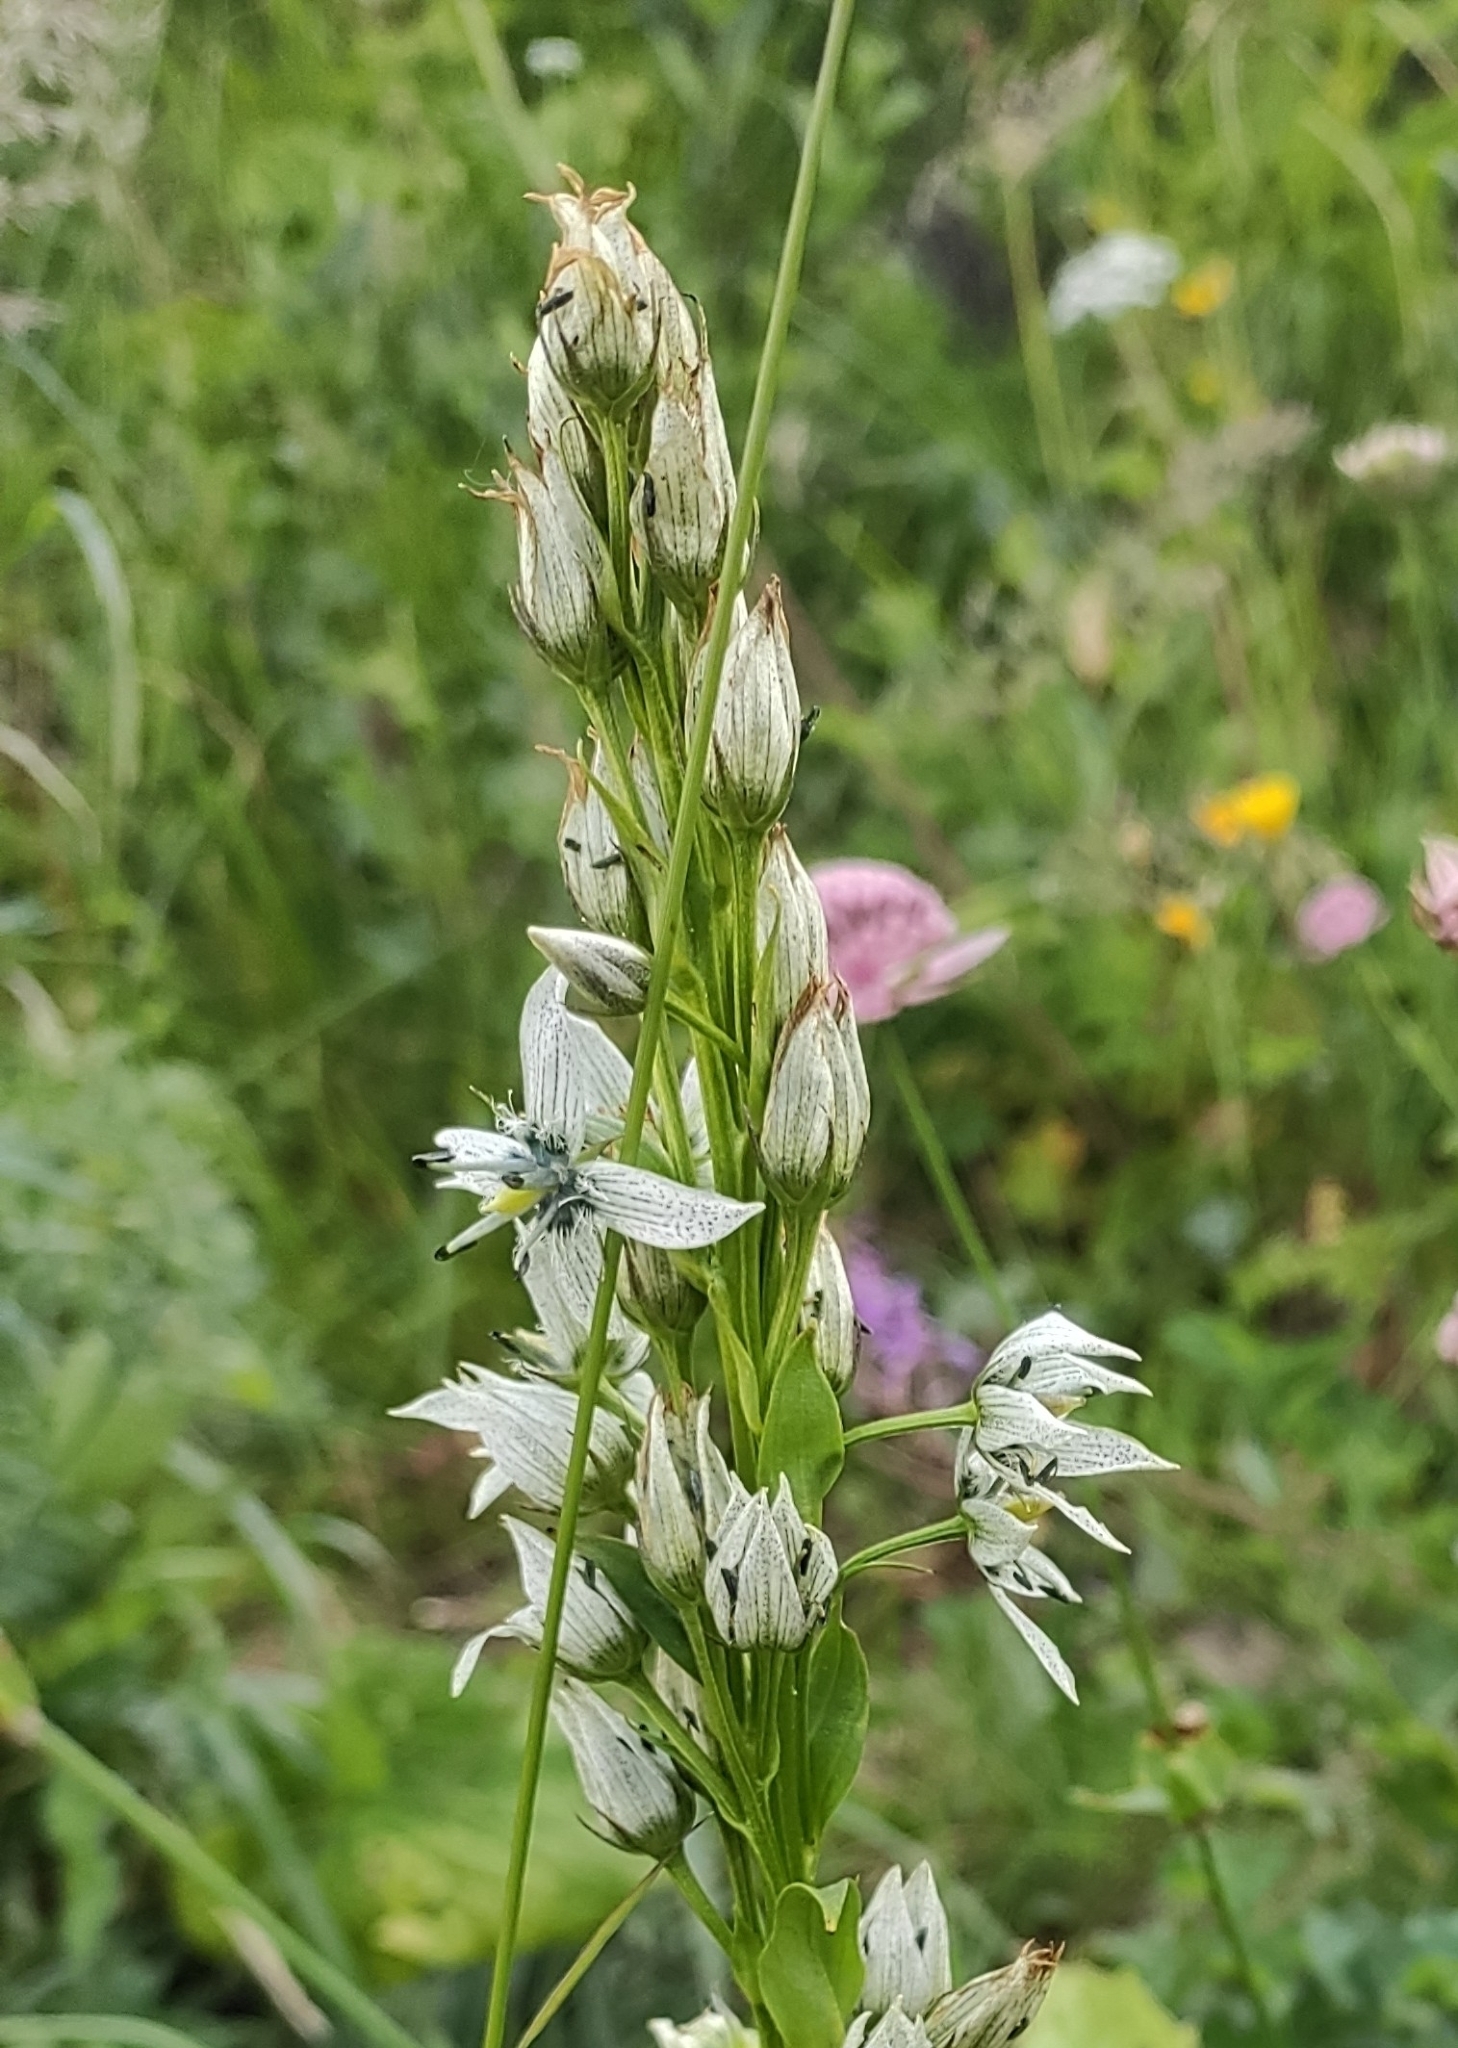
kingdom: Plantae
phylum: Tracheophyta
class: Magnoliopsida
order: Gentianales
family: Gentianaceae
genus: Swertia
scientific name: Swertia iberica
